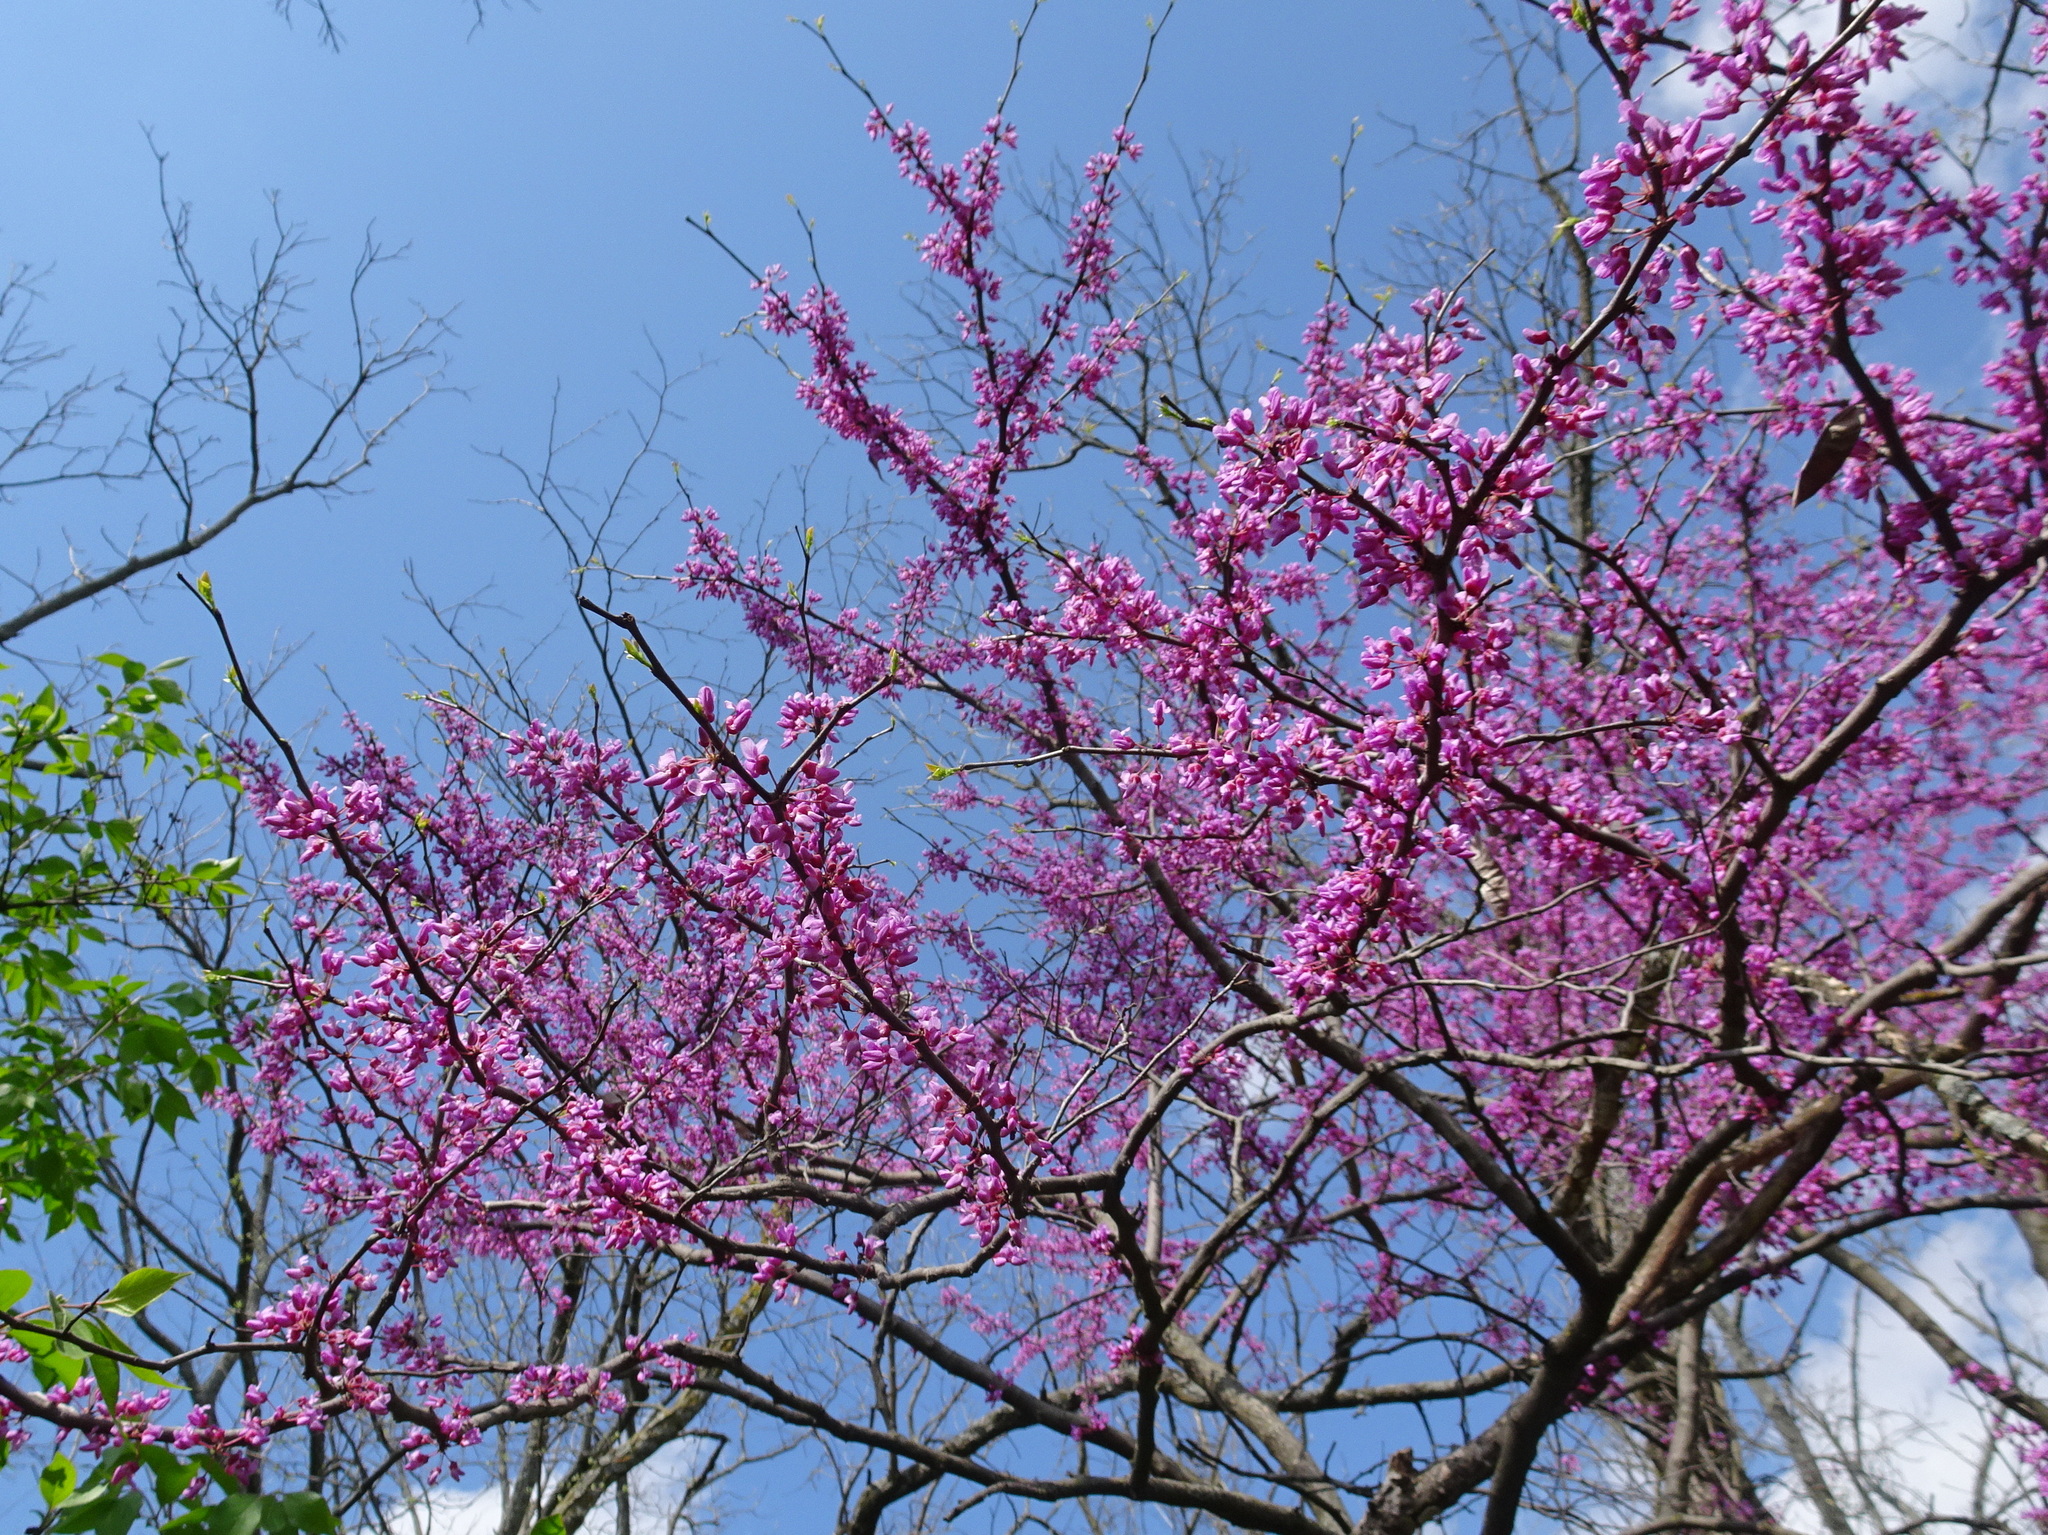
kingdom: Plantae
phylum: Tracheophyta
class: Magnoliopsida
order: Fabales
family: Fabaceae
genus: Cercis
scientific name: Cercis canadensis
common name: Eastern redbud
